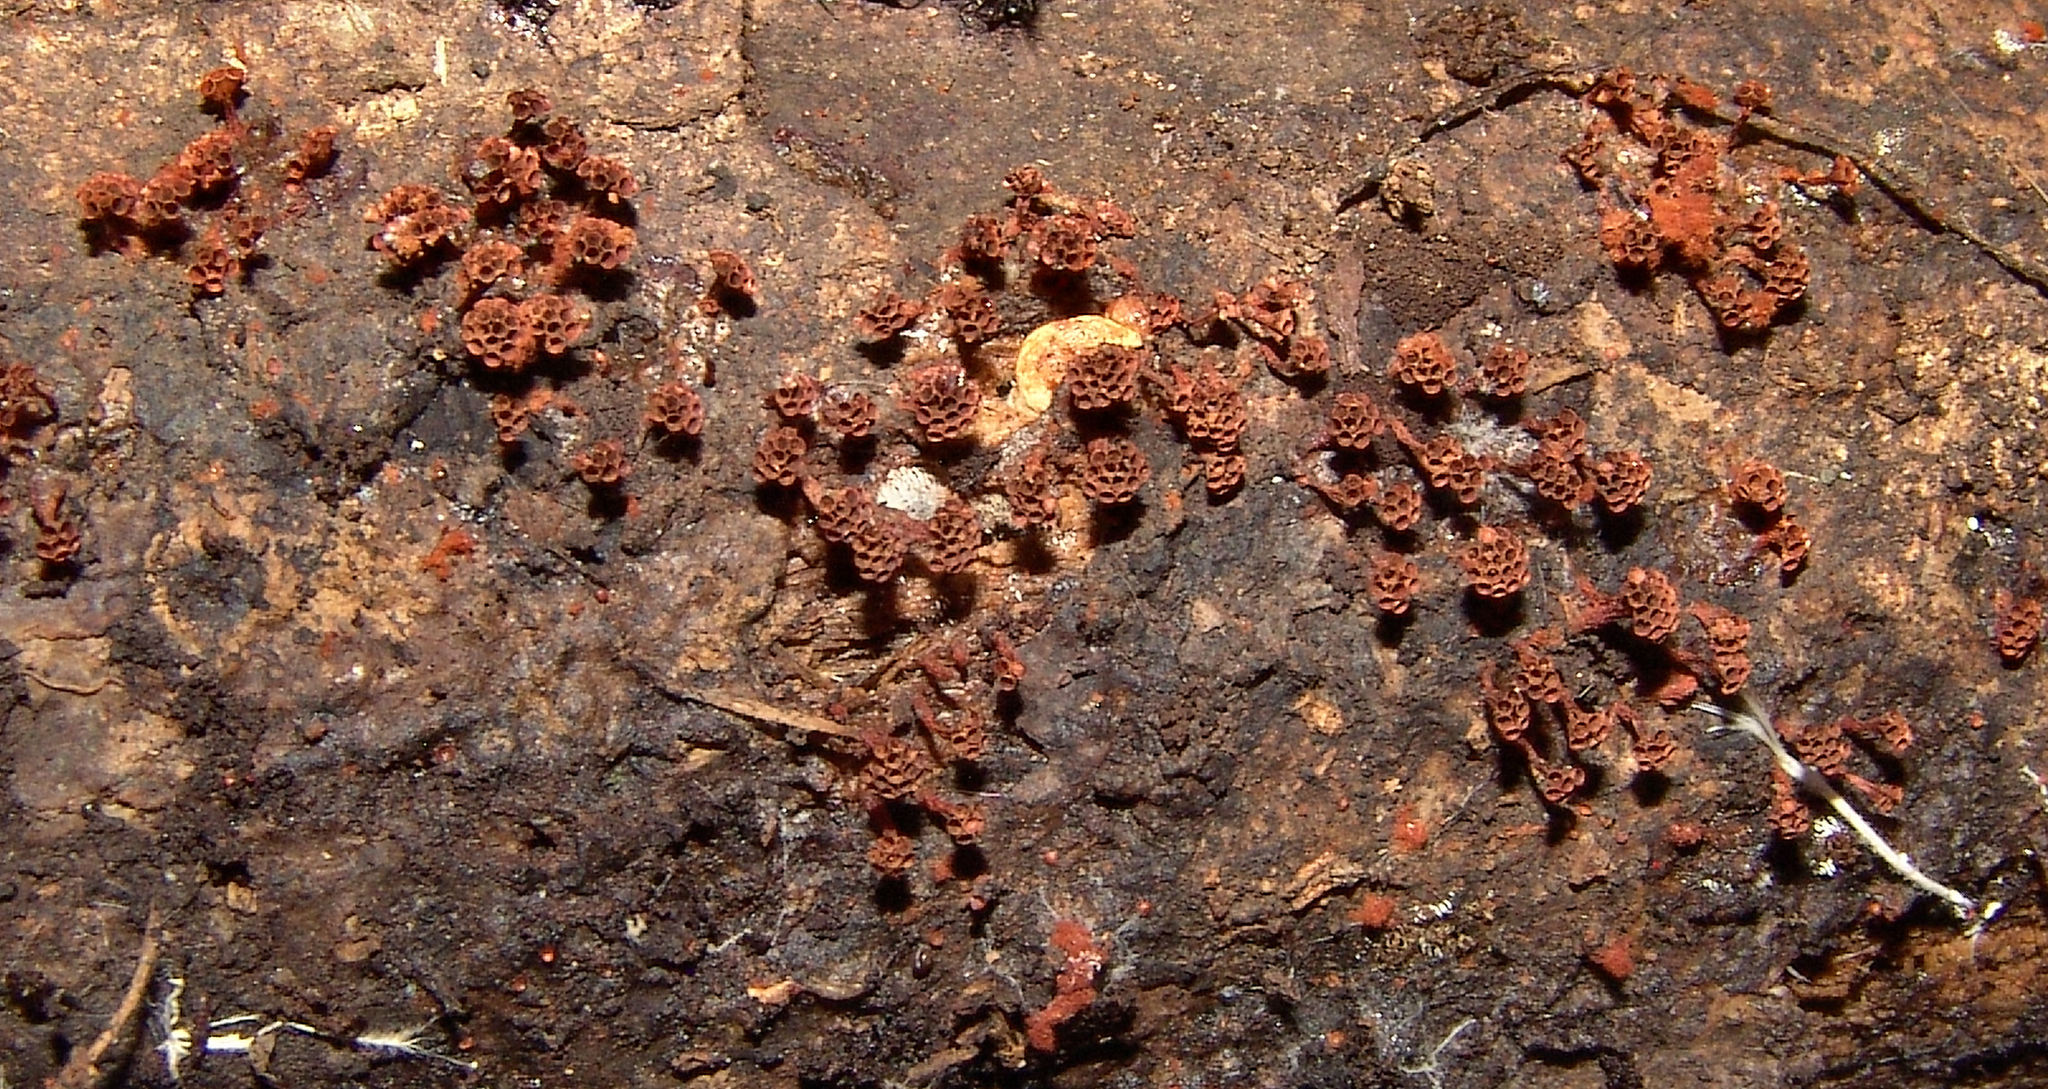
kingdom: Protozoa
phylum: Mycetozoa
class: Myxomycetes
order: Trichiales
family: Trichiaceae
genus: Metatrichia
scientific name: Metatrichia vesparia
